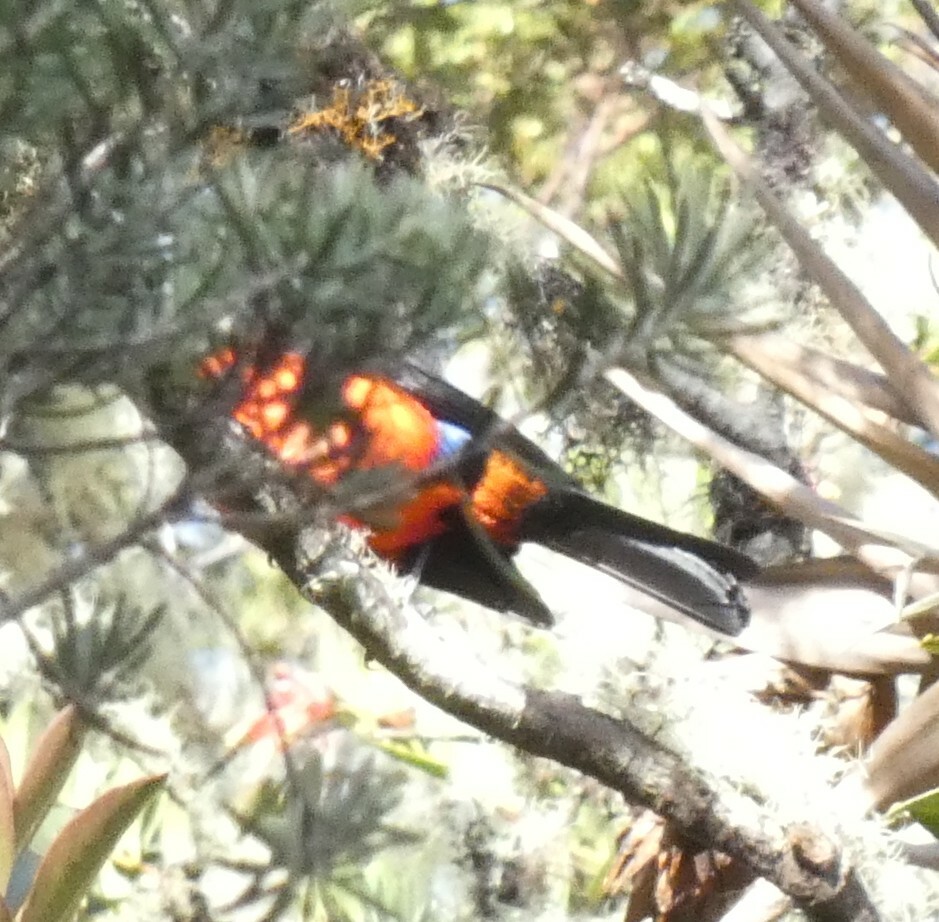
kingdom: Animalia
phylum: Chordata
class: Aves
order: Passeriformes
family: Thraupidae
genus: Anisognathus
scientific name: Anisognathus igniventris
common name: Scarlet-bellied mountain tanager
